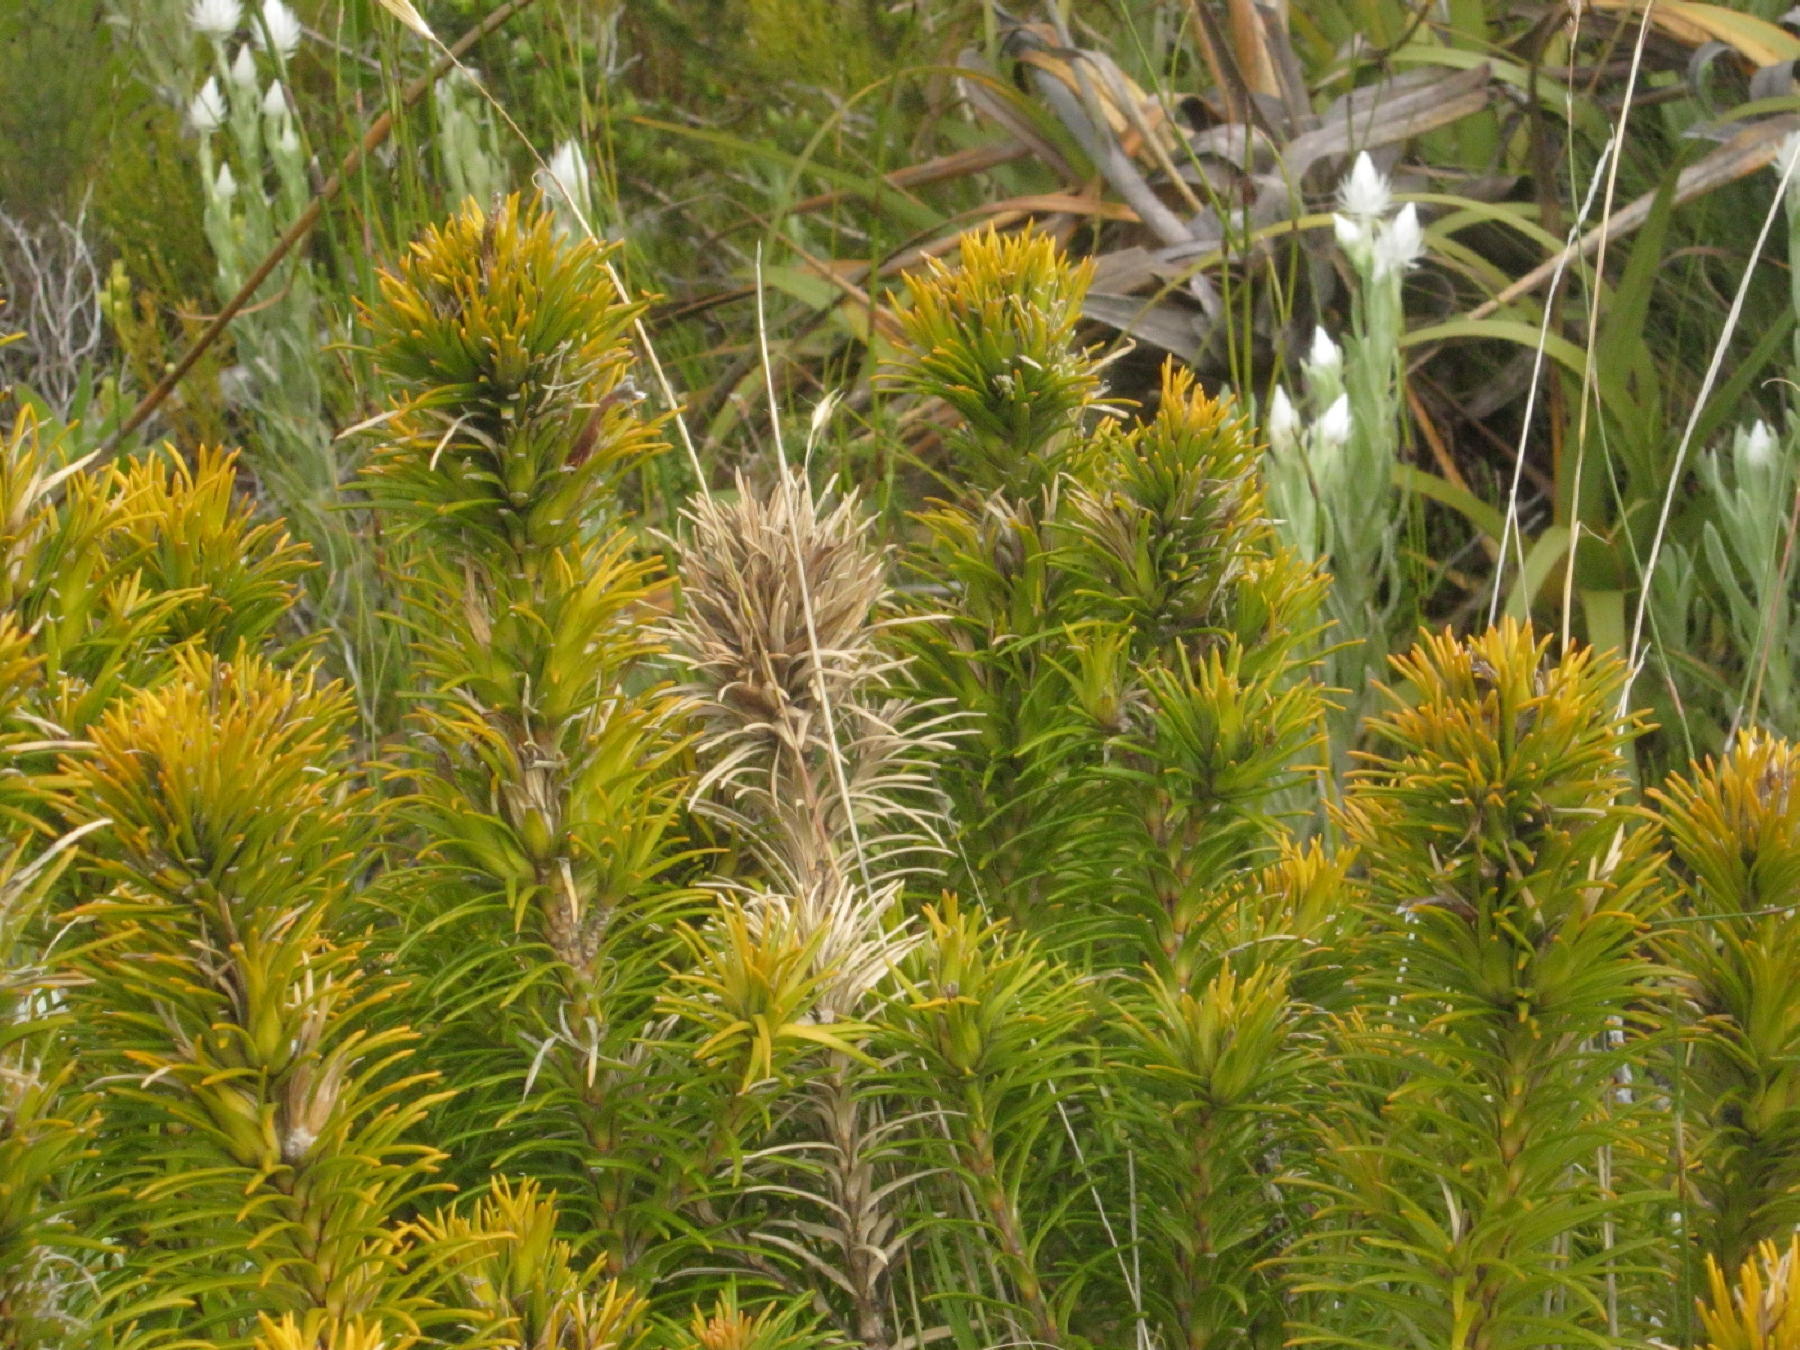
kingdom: Plantae
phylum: Tracheophyta
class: Magnoliopsida
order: Lamiales
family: Stilbaceae
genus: Retzia
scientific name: Retzia capensis
